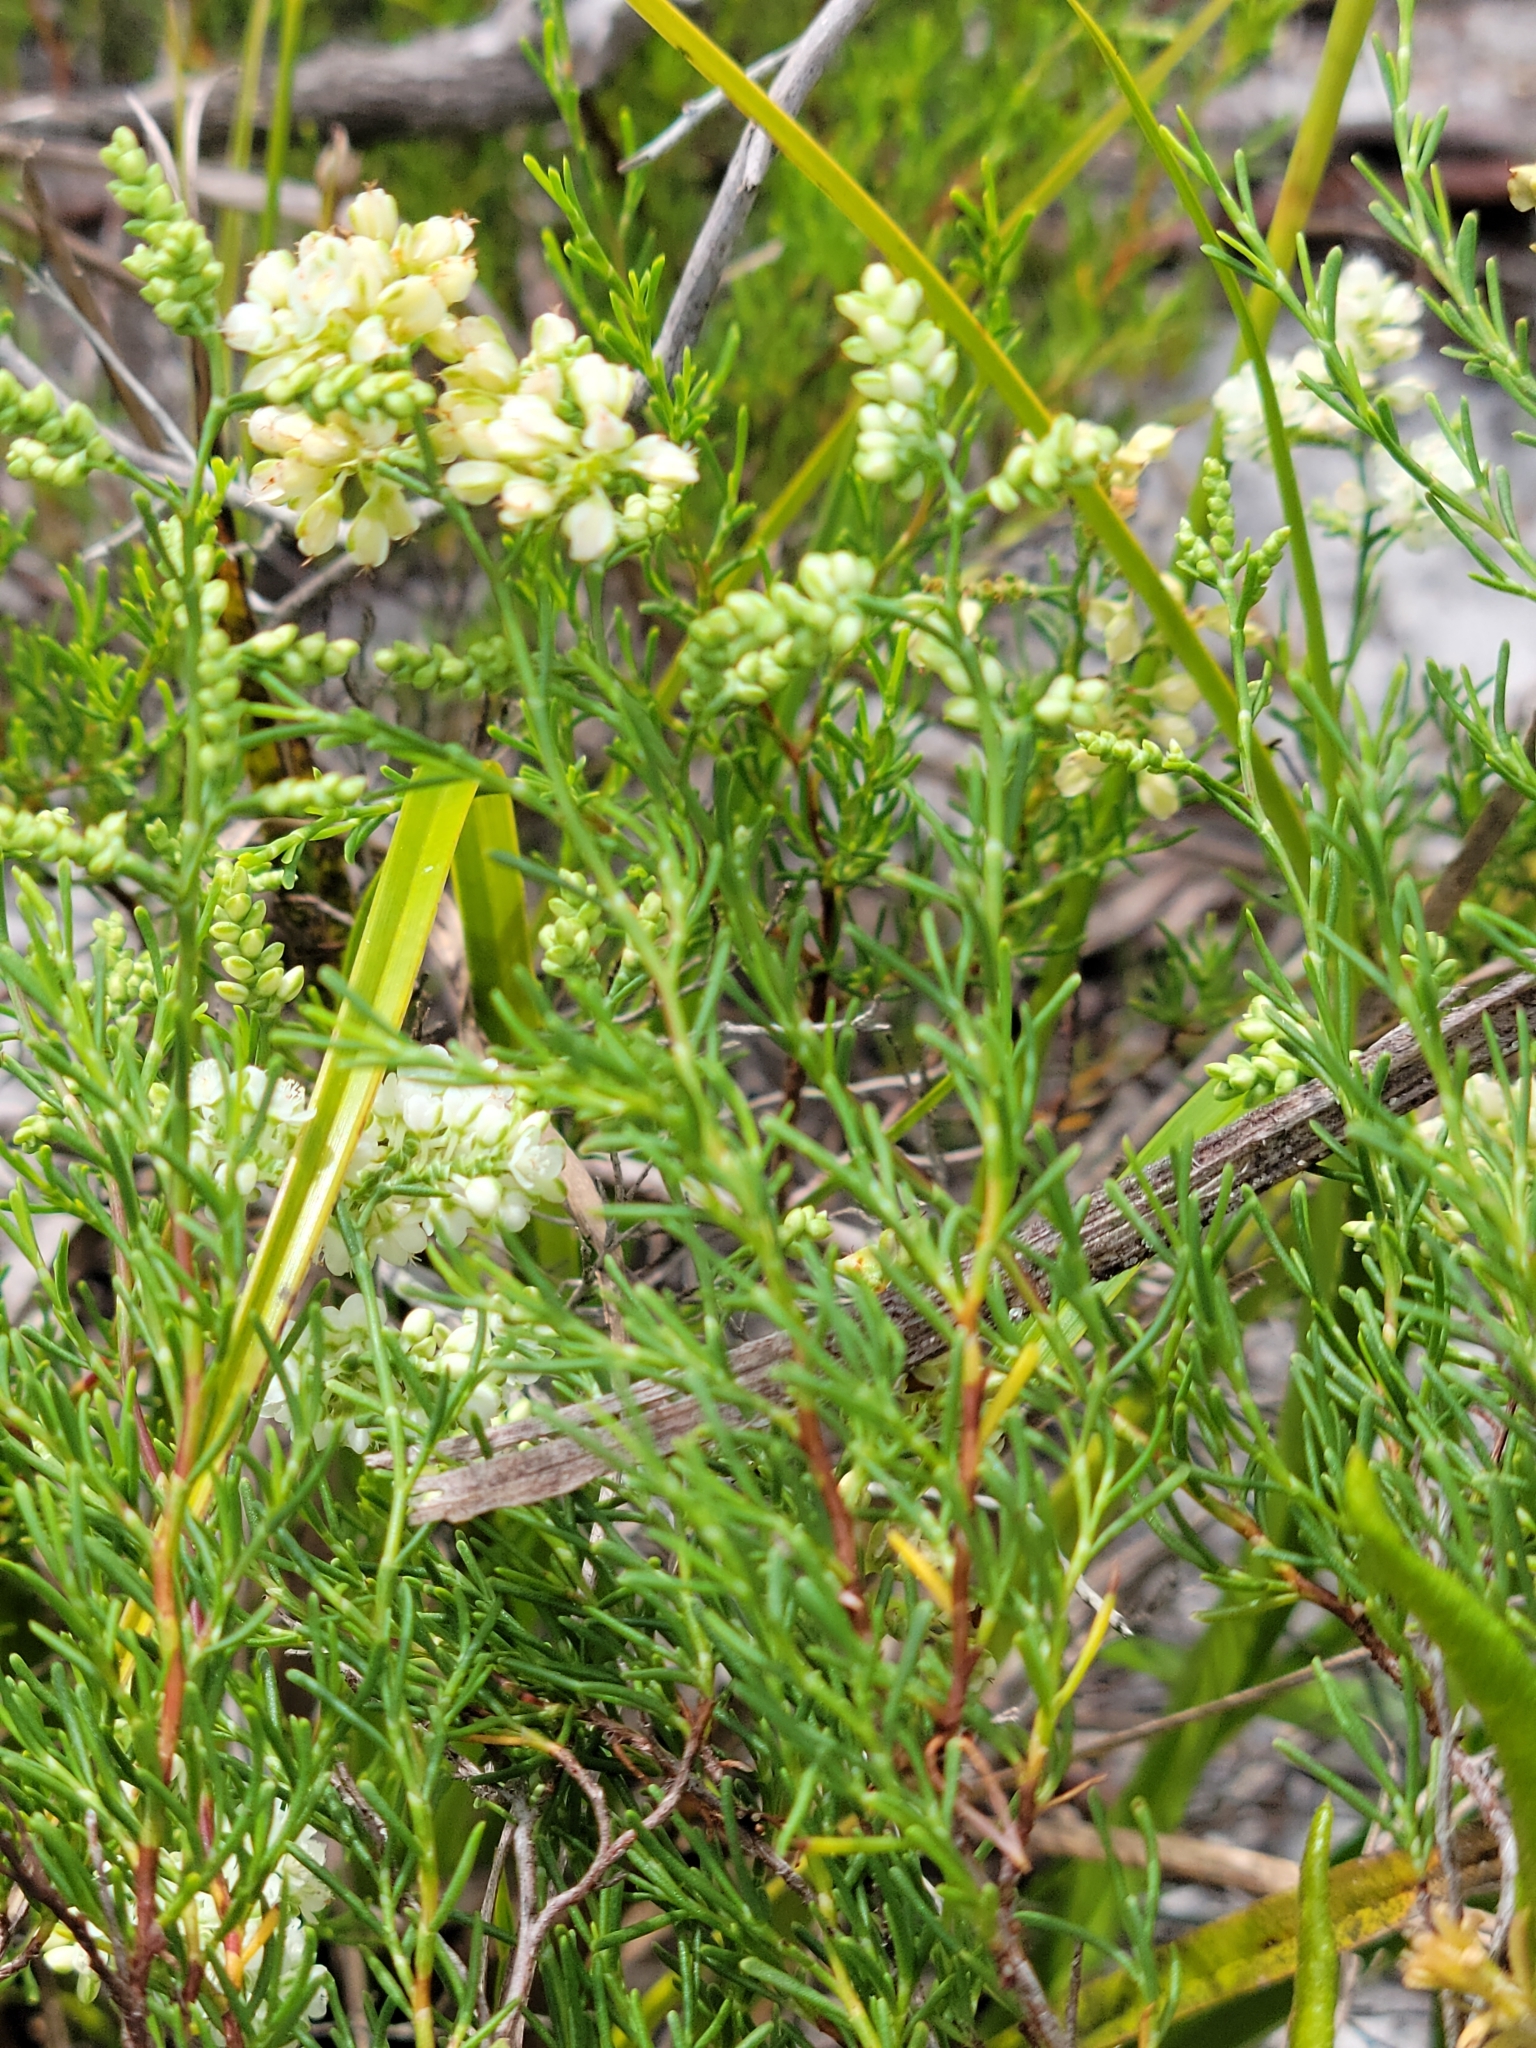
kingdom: Plantae
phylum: Tracheophyta
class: Magnoliopsida
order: Caryophyllales
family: Polygonaceae
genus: Polygonella
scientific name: Polygonella myriophylla
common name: Sandlace
